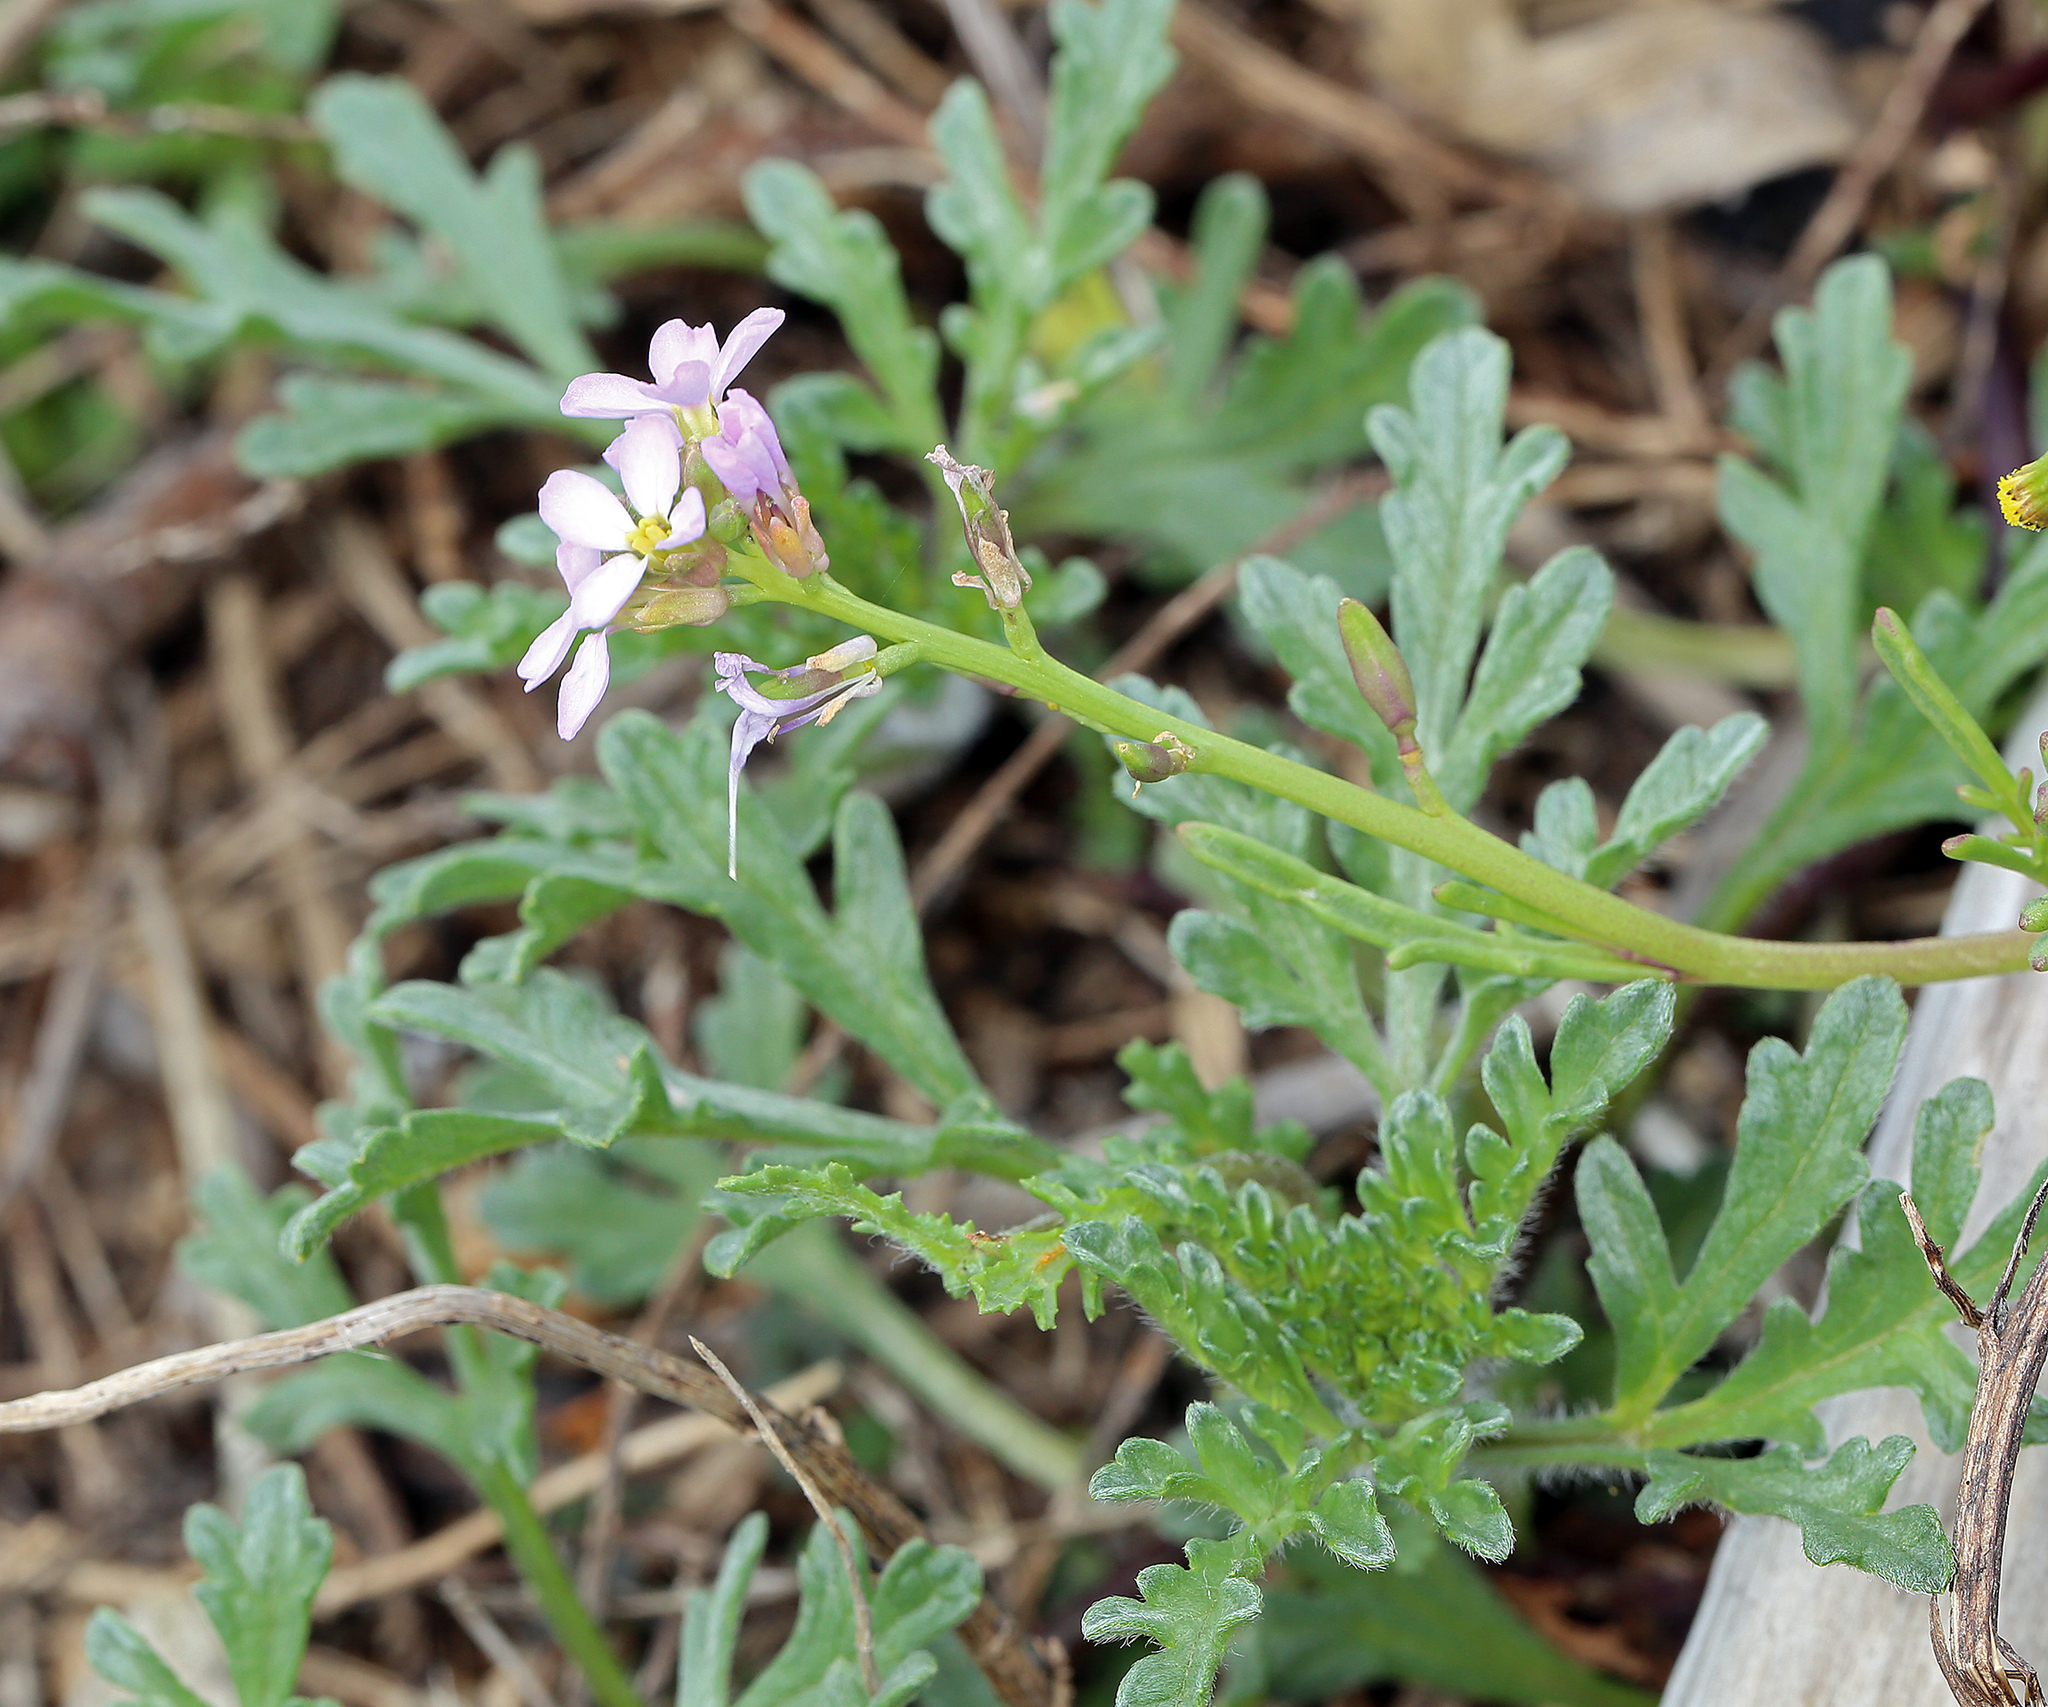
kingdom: Plantae
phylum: Tracheophyta
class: Magnoliopsida
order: Brassicales
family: Brassicaceae
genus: Cakile
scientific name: Cakile maritima
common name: Sea rocket
